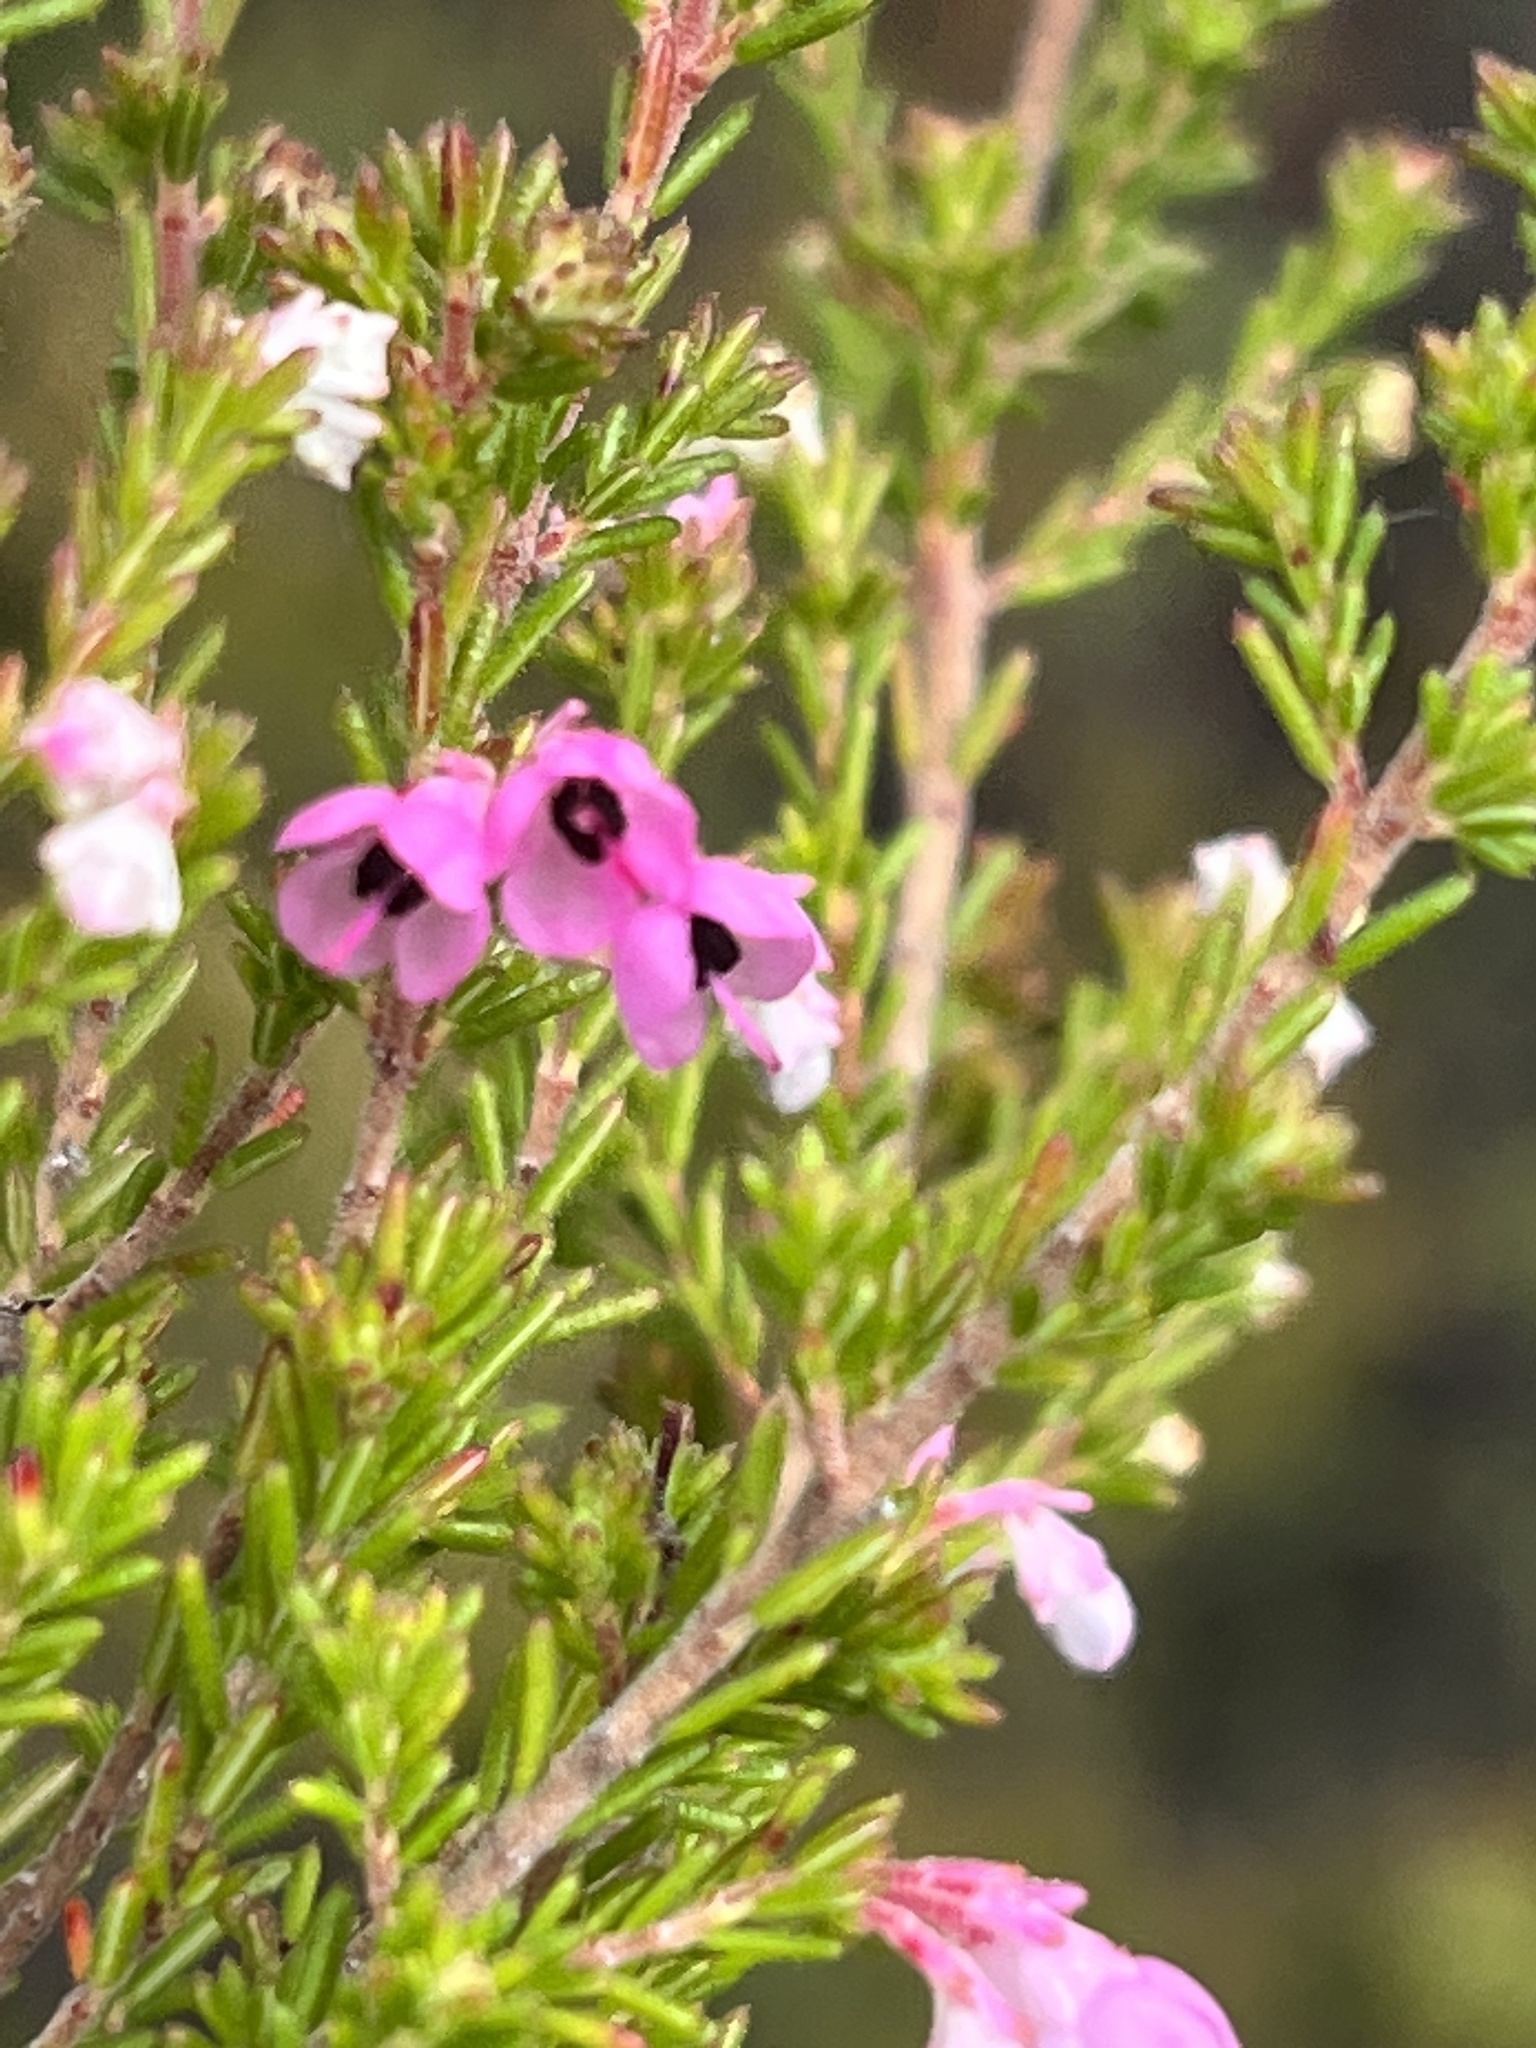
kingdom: Plantae
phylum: Tracheophyta
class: Magnoliopsida
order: Ericales
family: Ericaceae
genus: Erica
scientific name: Erica melanthera
